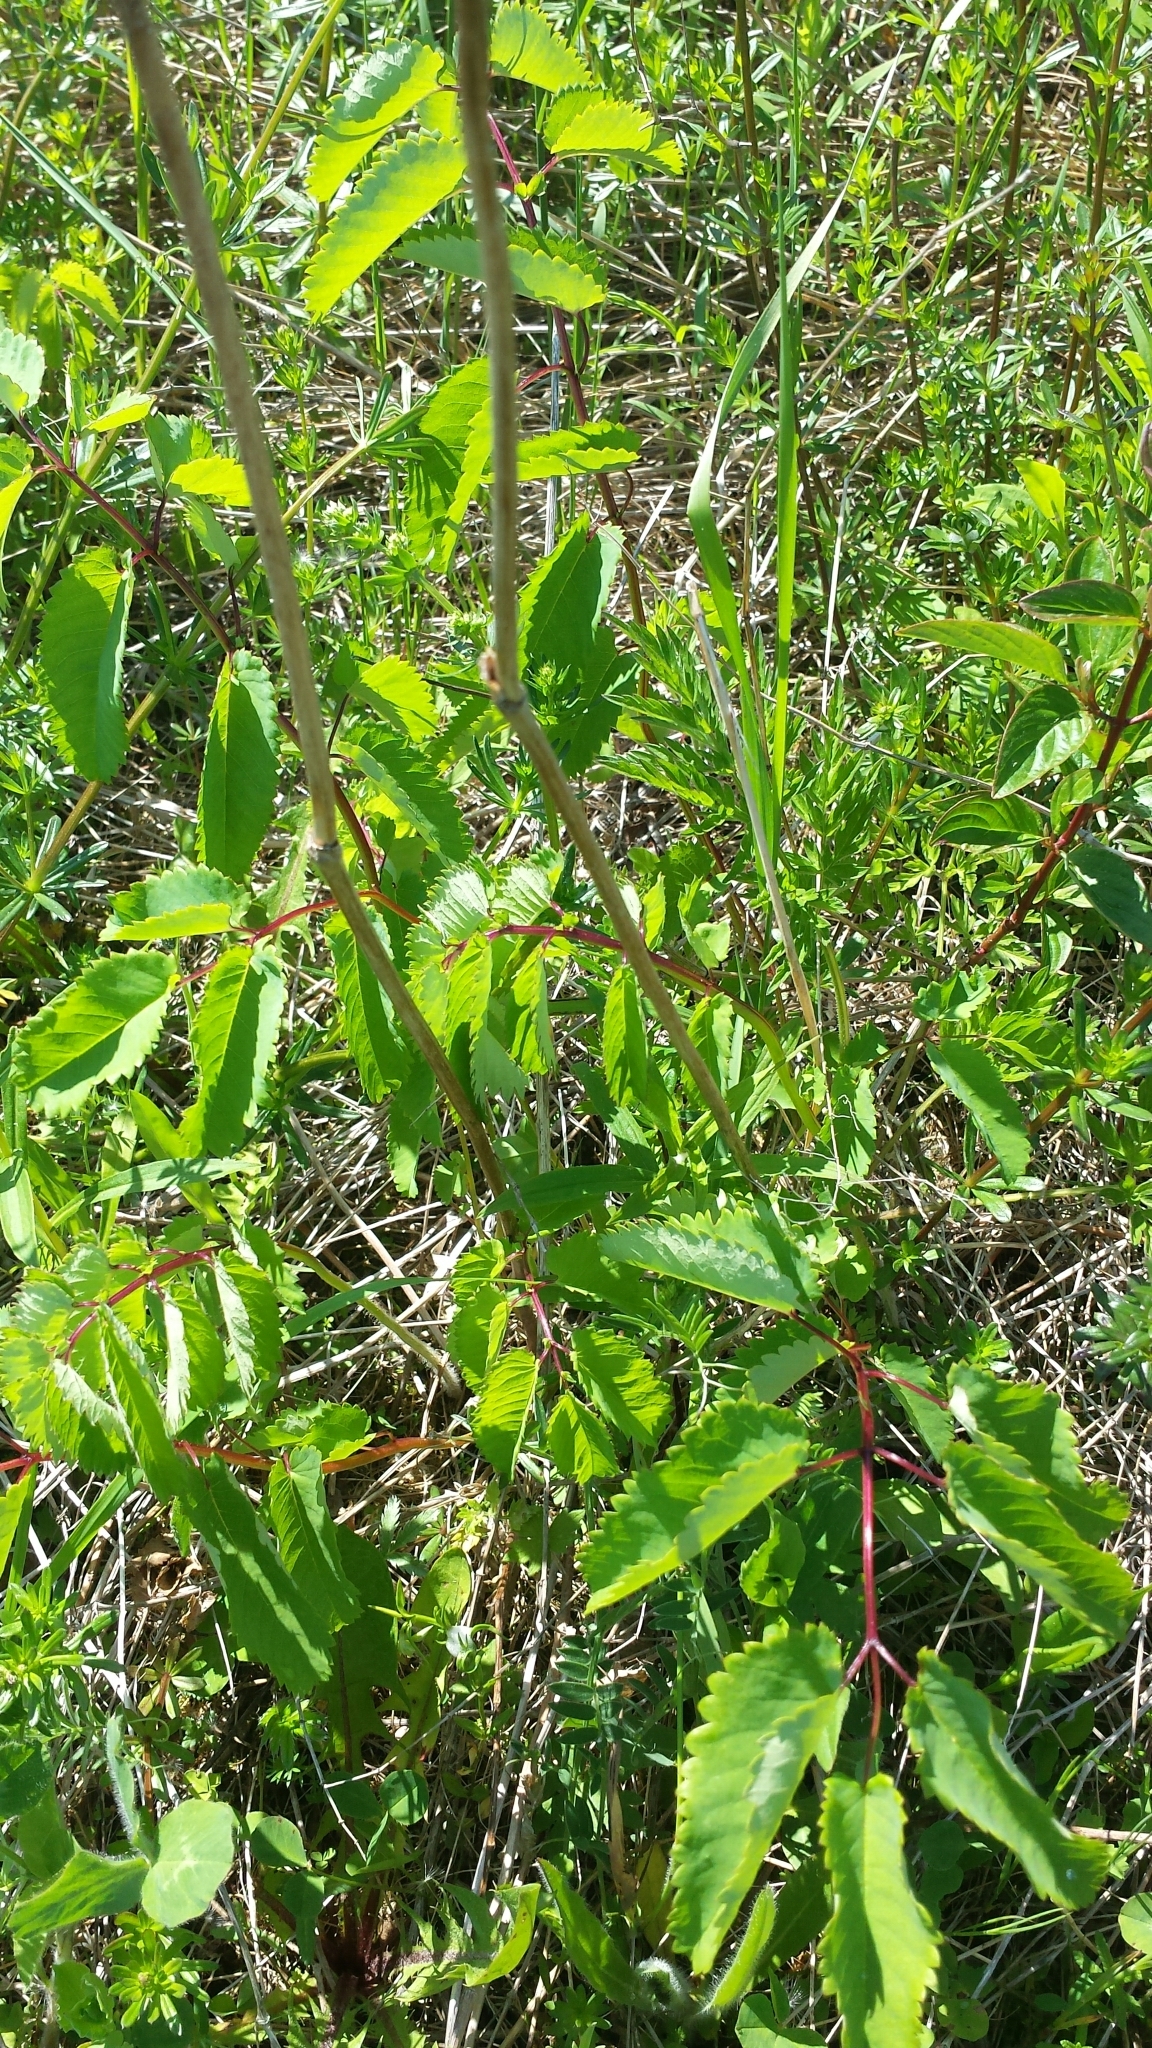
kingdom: Plantae
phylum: Tracheophyta
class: Magnoliopsida
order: Rosales
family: Rosaceae
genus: Sanguisorba
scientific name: Sanguisorba canadensis
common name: White burnet
